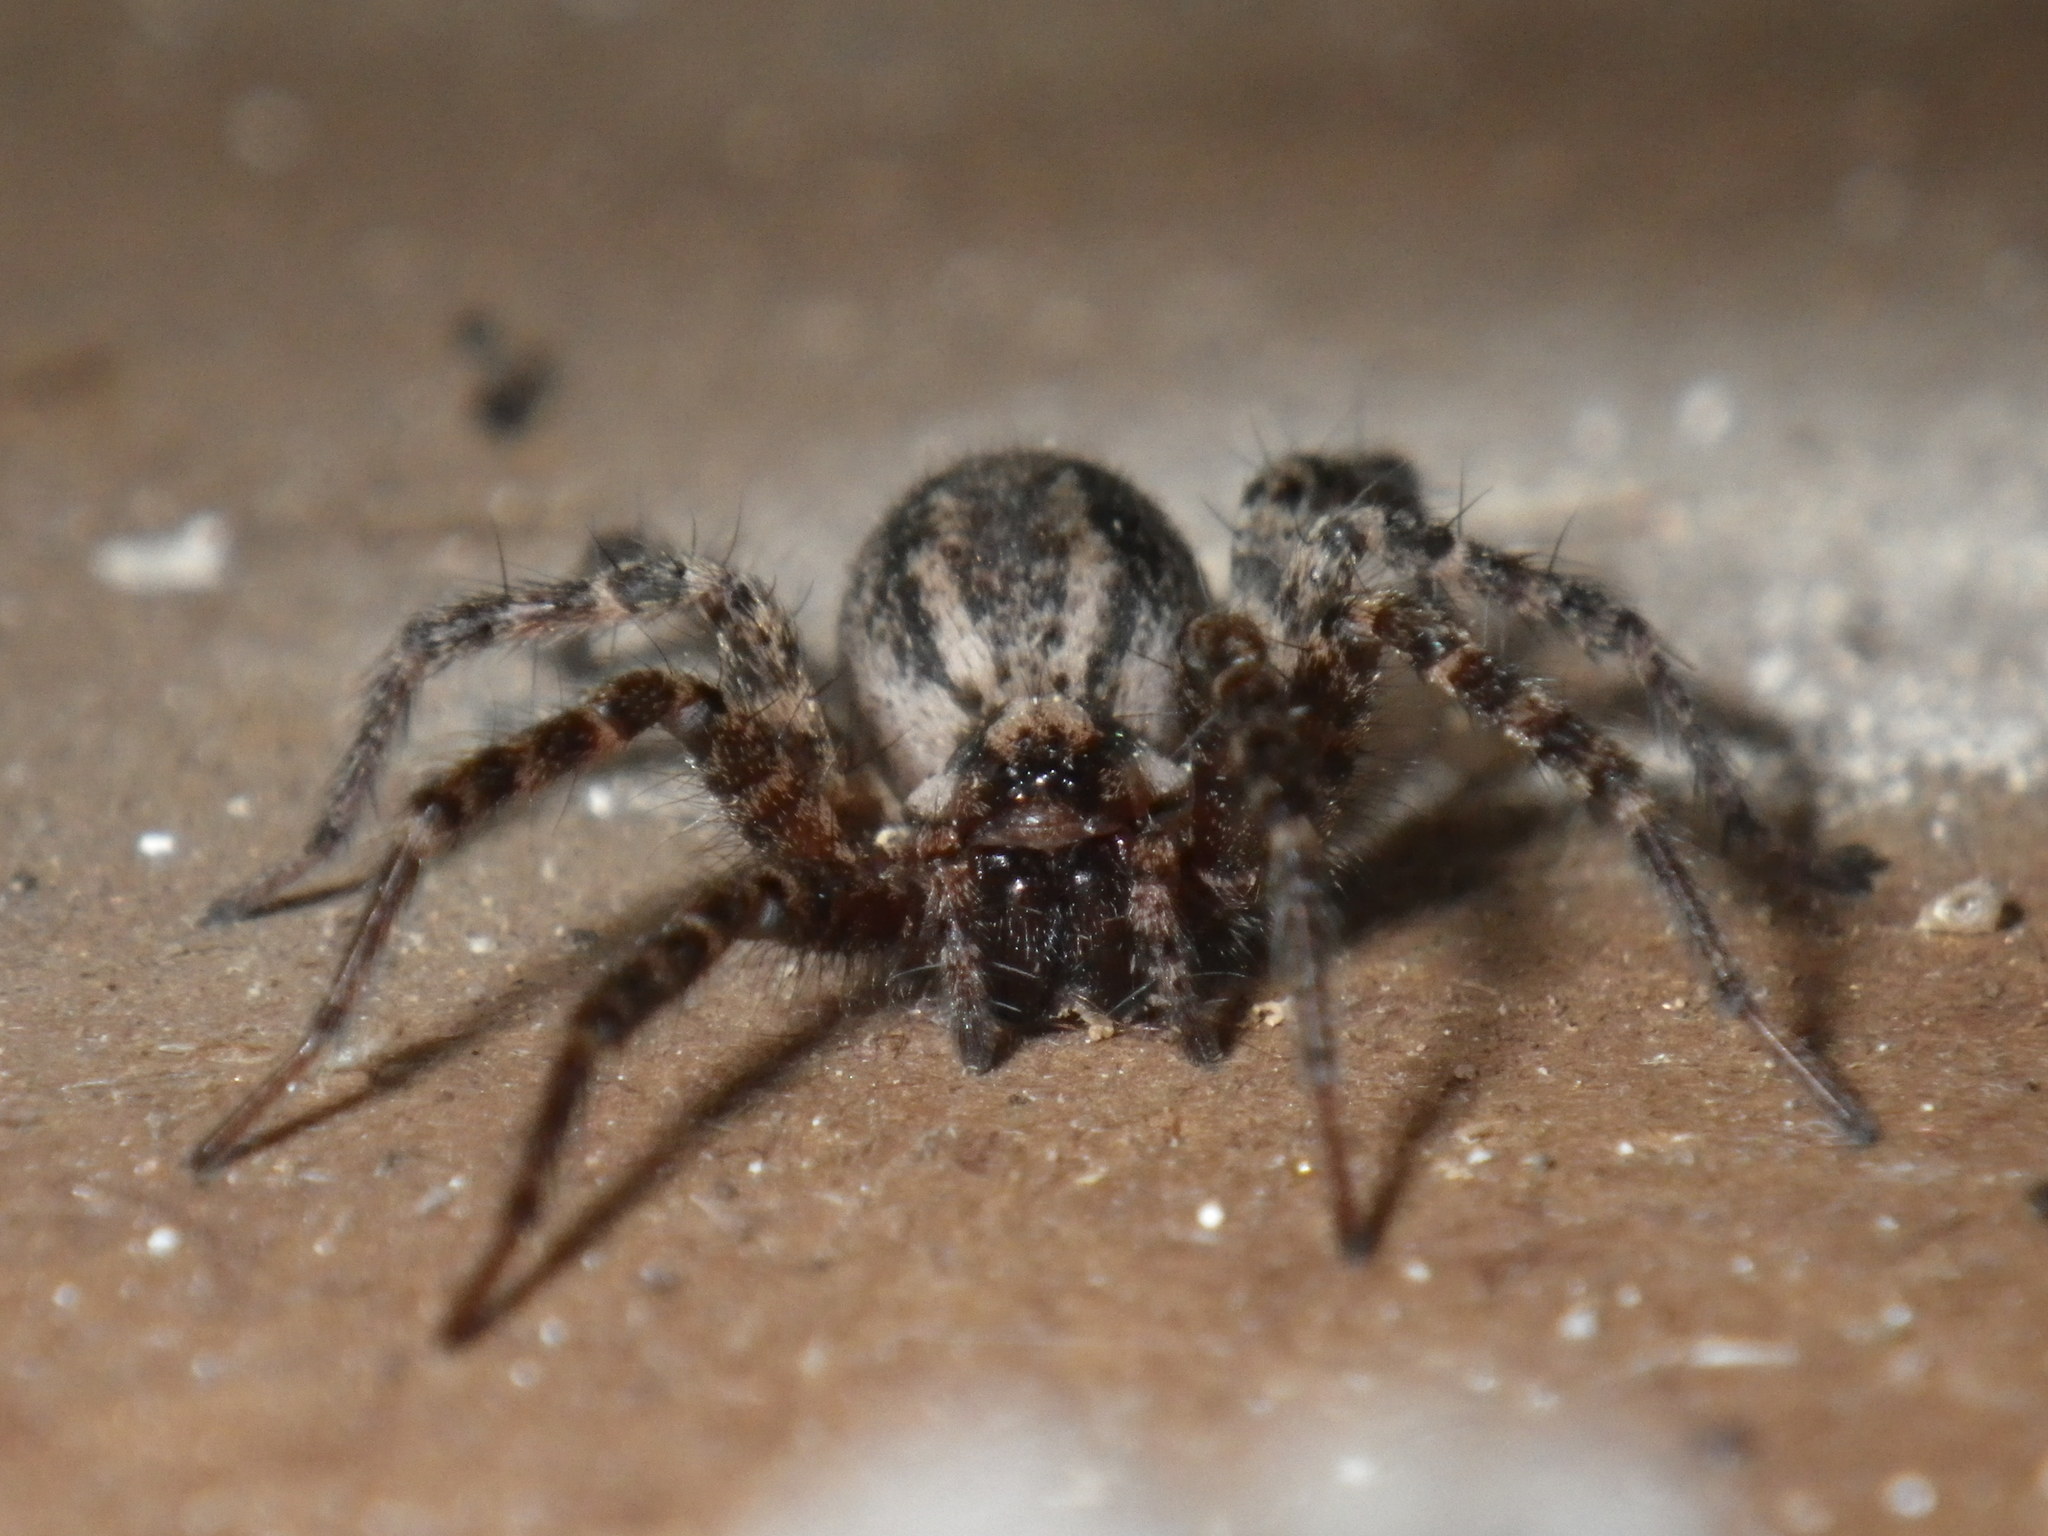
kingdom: Animalia
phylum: Arthropoda
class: Arachnida
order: Araneae
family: Agelenidae
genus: Hololena
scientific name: Hololena
